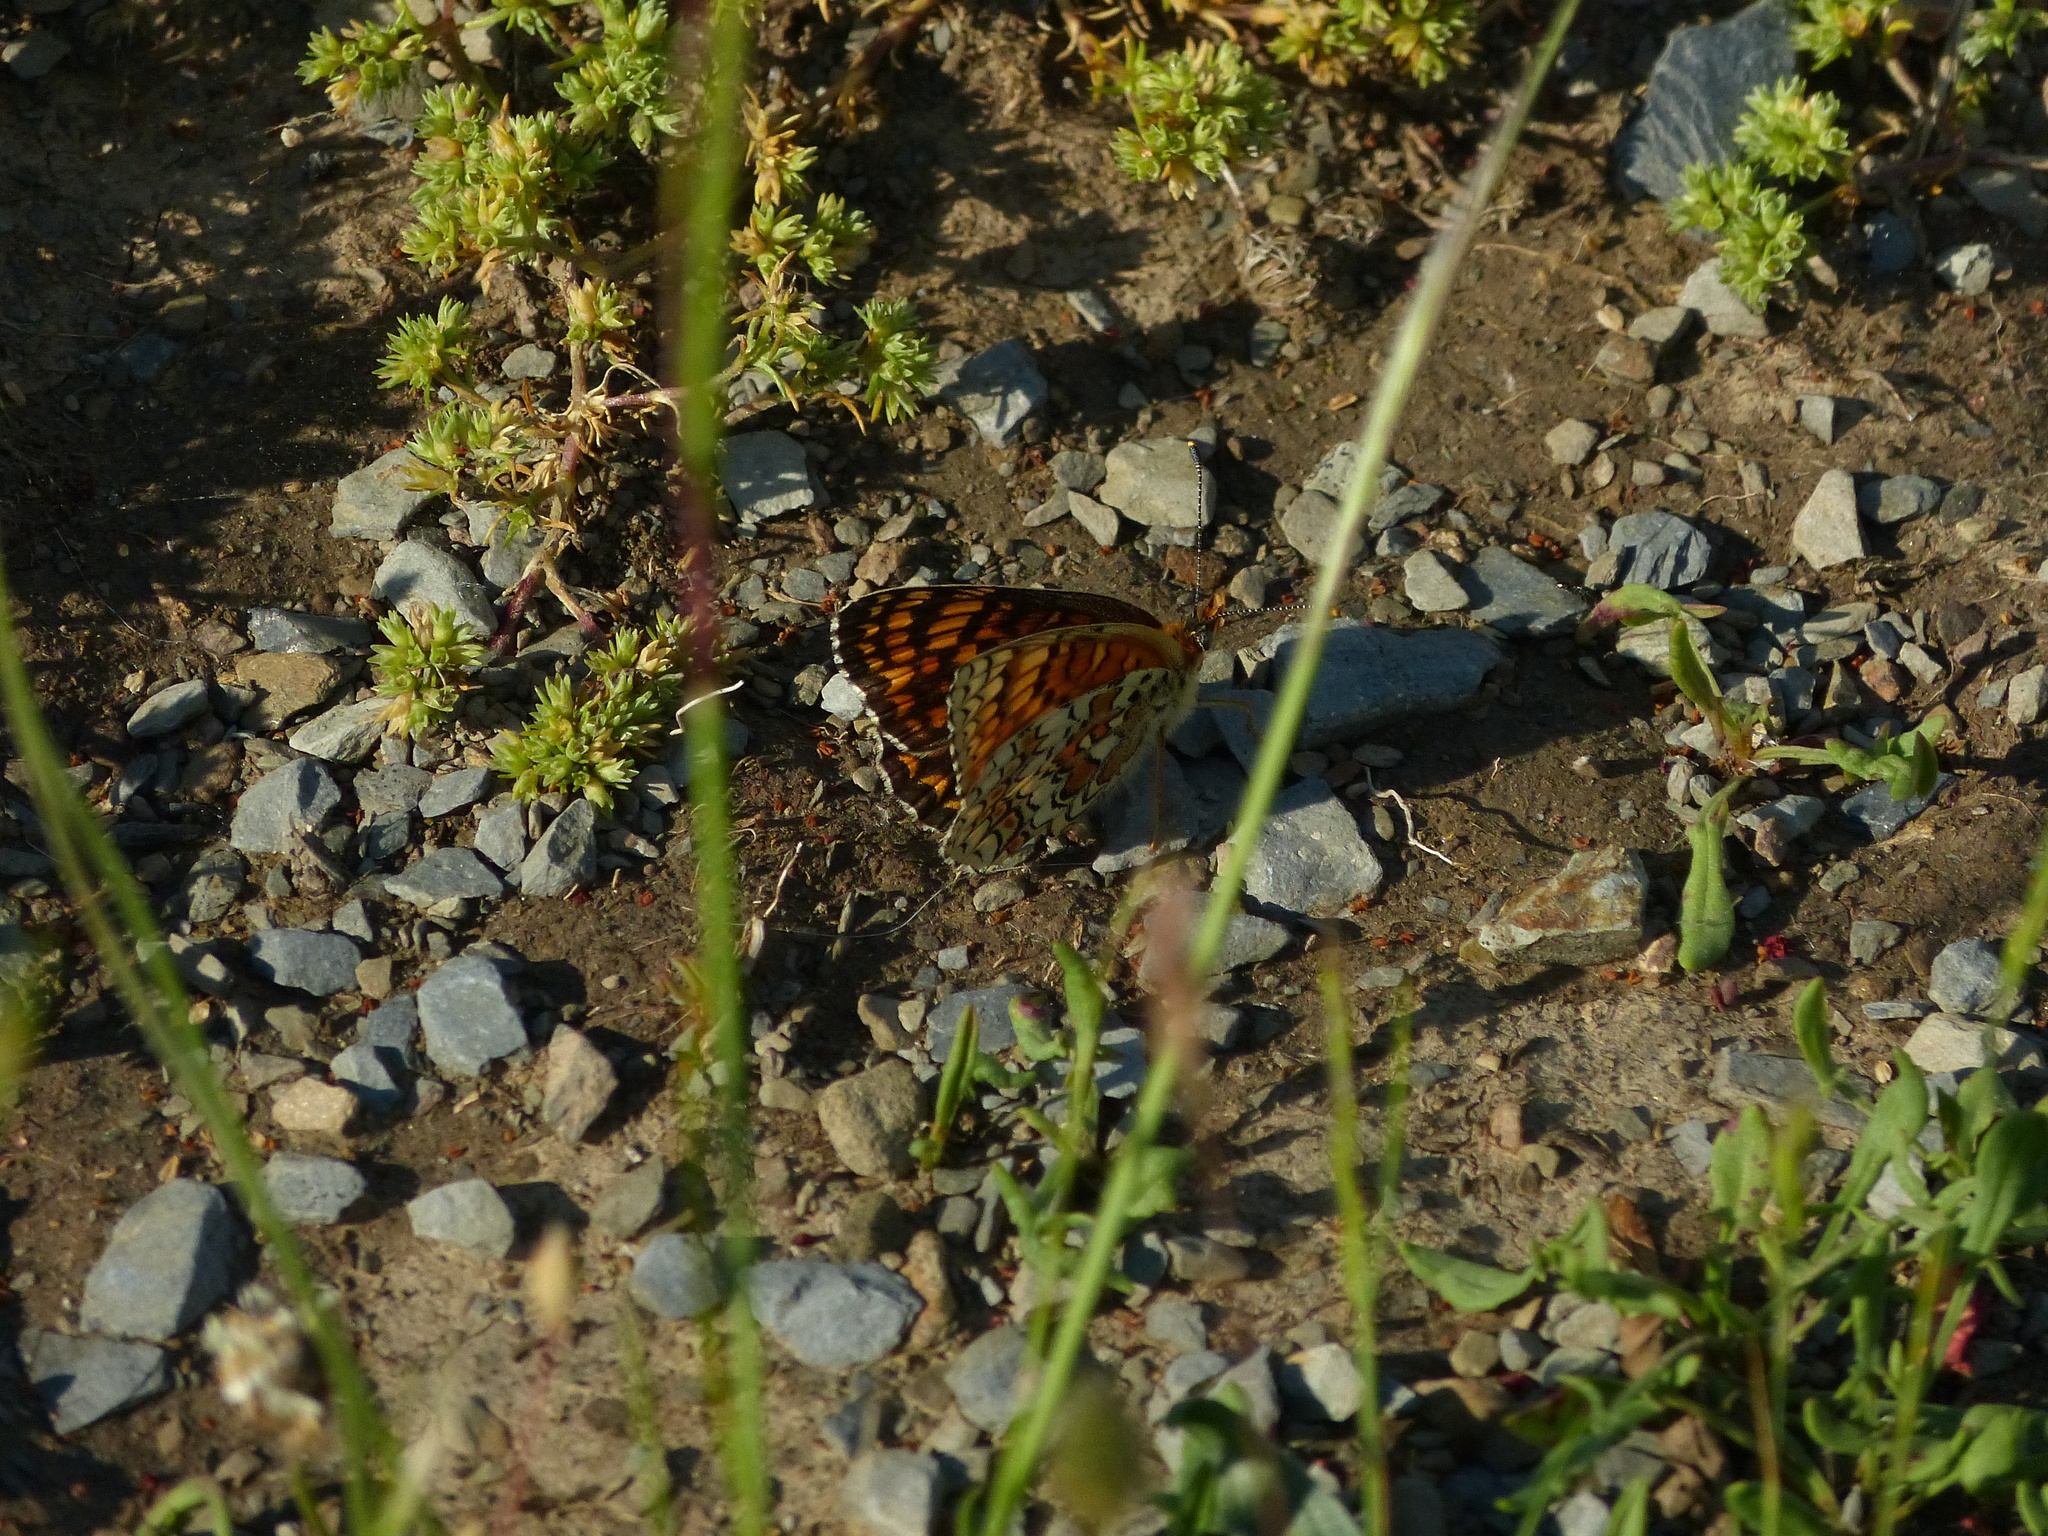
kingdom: Animalia
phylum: Arthropoda
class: Insecta
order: Lepidoptera
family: Nymphalidae
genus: Melitaea
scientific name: Melitaea phoebe
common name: Knapweed fritillary
